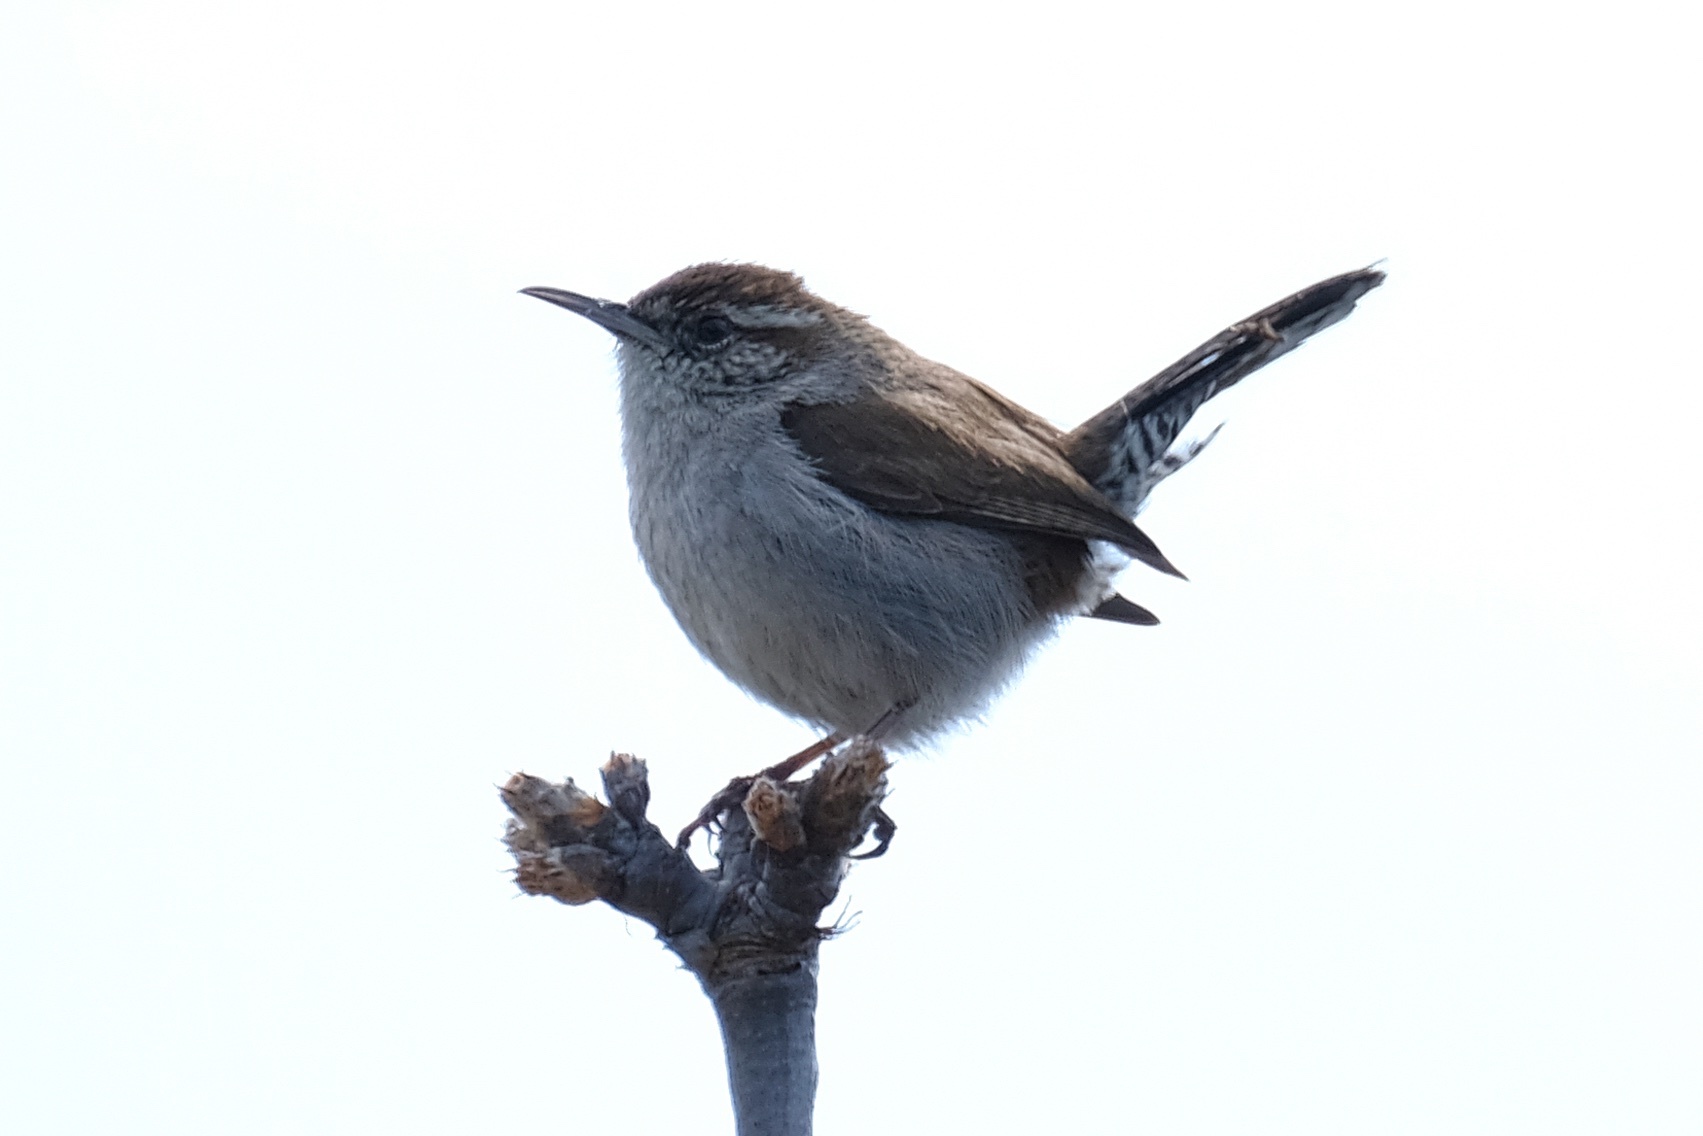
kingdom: Animalia
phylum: Chordata
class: Aves
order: Passeriformes
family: Troglodytidae
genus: Thryomanes
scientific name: Thryomanes bewickii
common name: Bewick's wren
